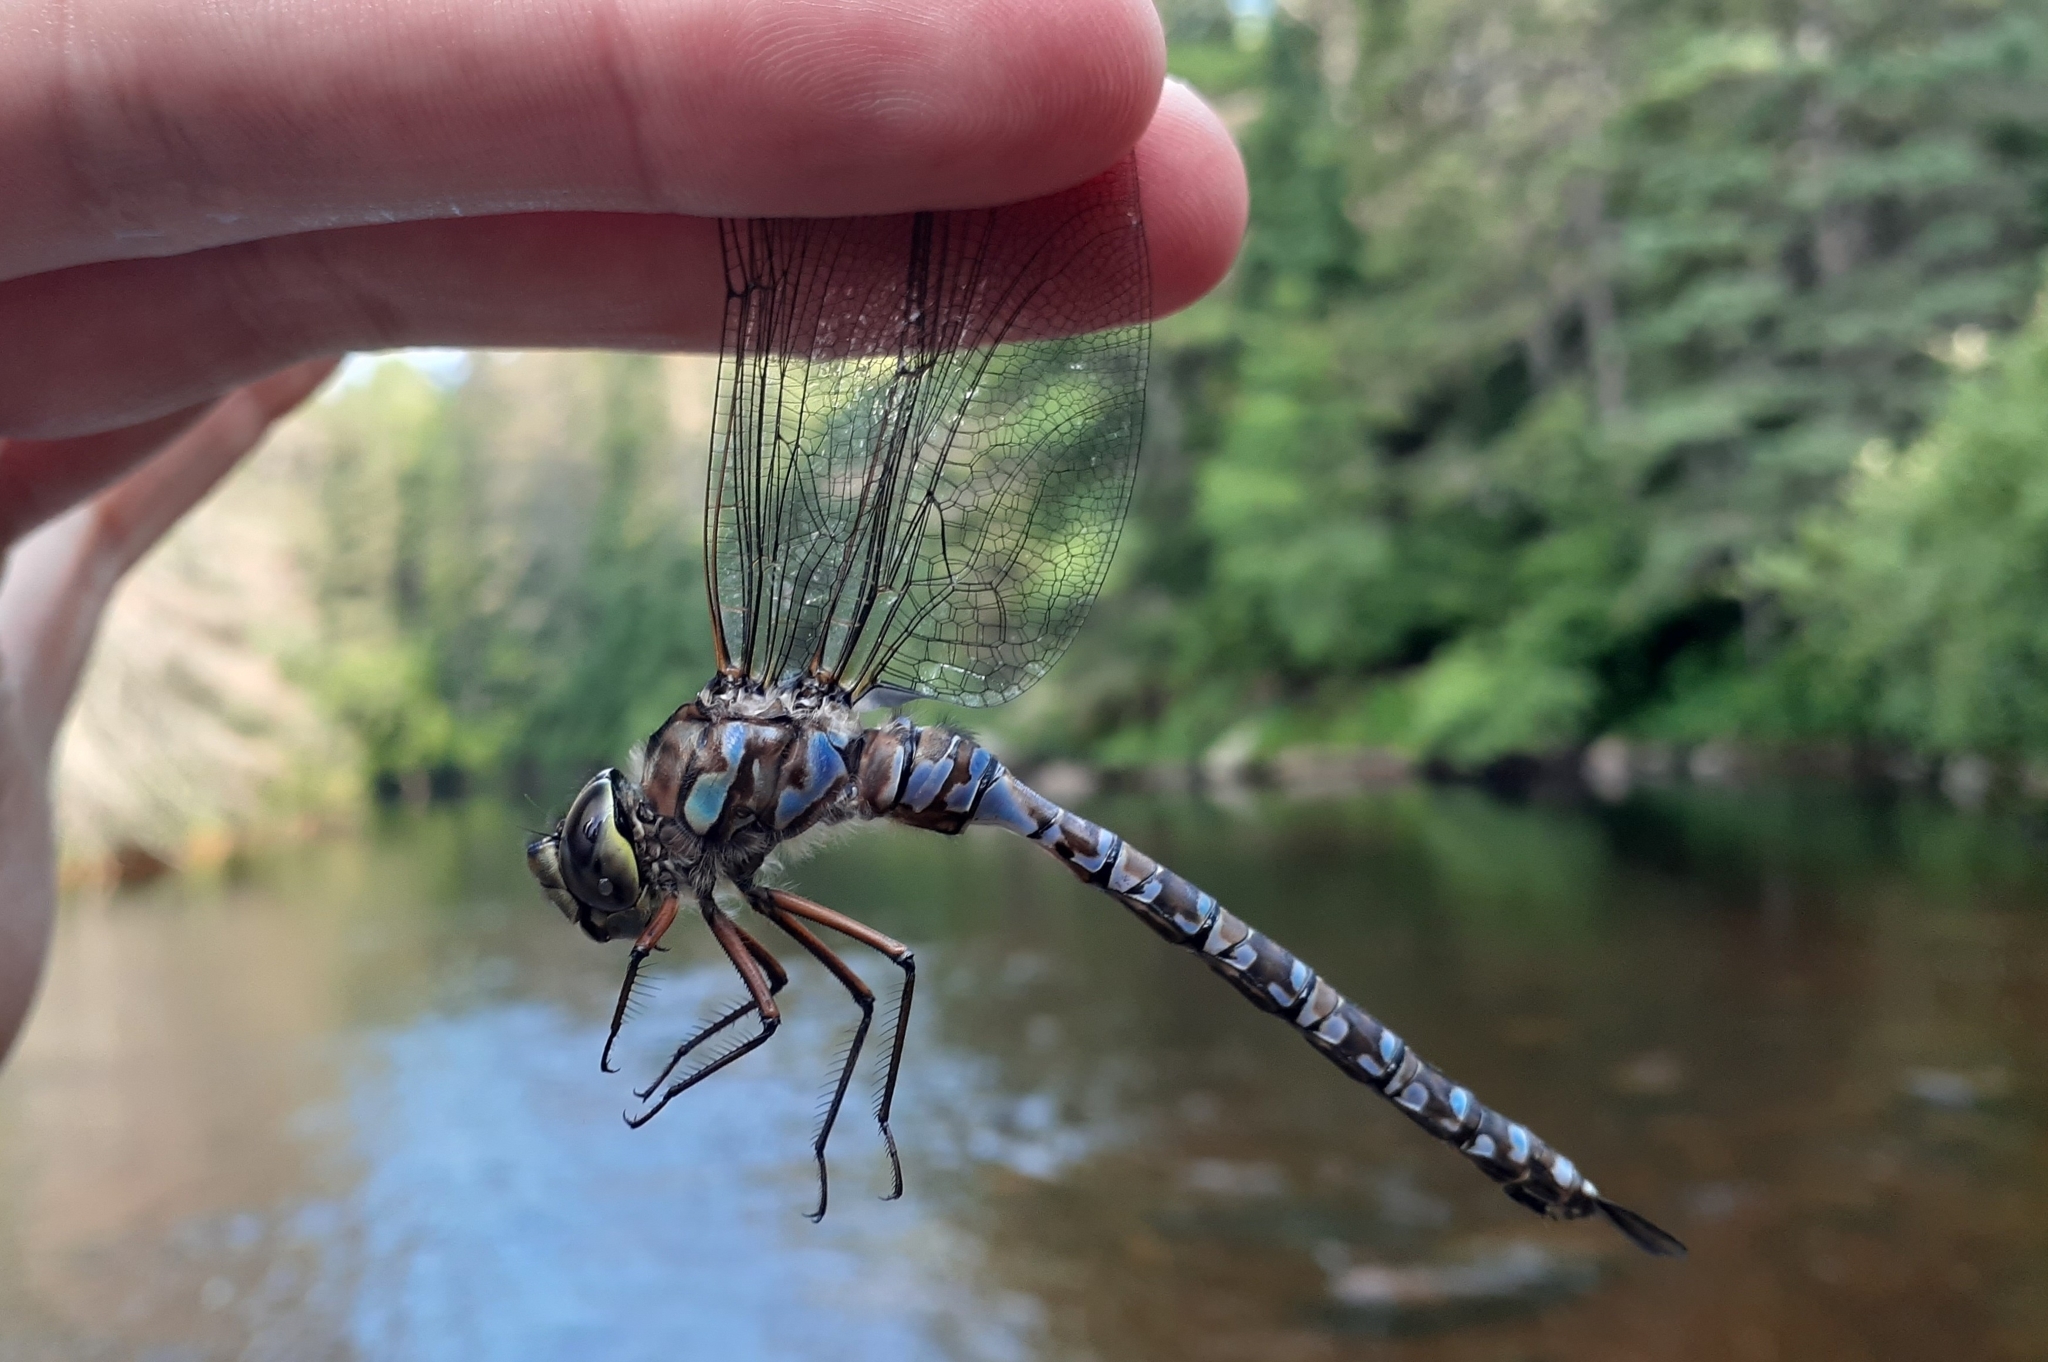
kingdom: Animalia
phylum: Arthropoda
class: Insecta
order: Odonata
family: Aeshnidae
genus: Aeshna
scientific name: Aeshna eremita
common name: Lake darner
